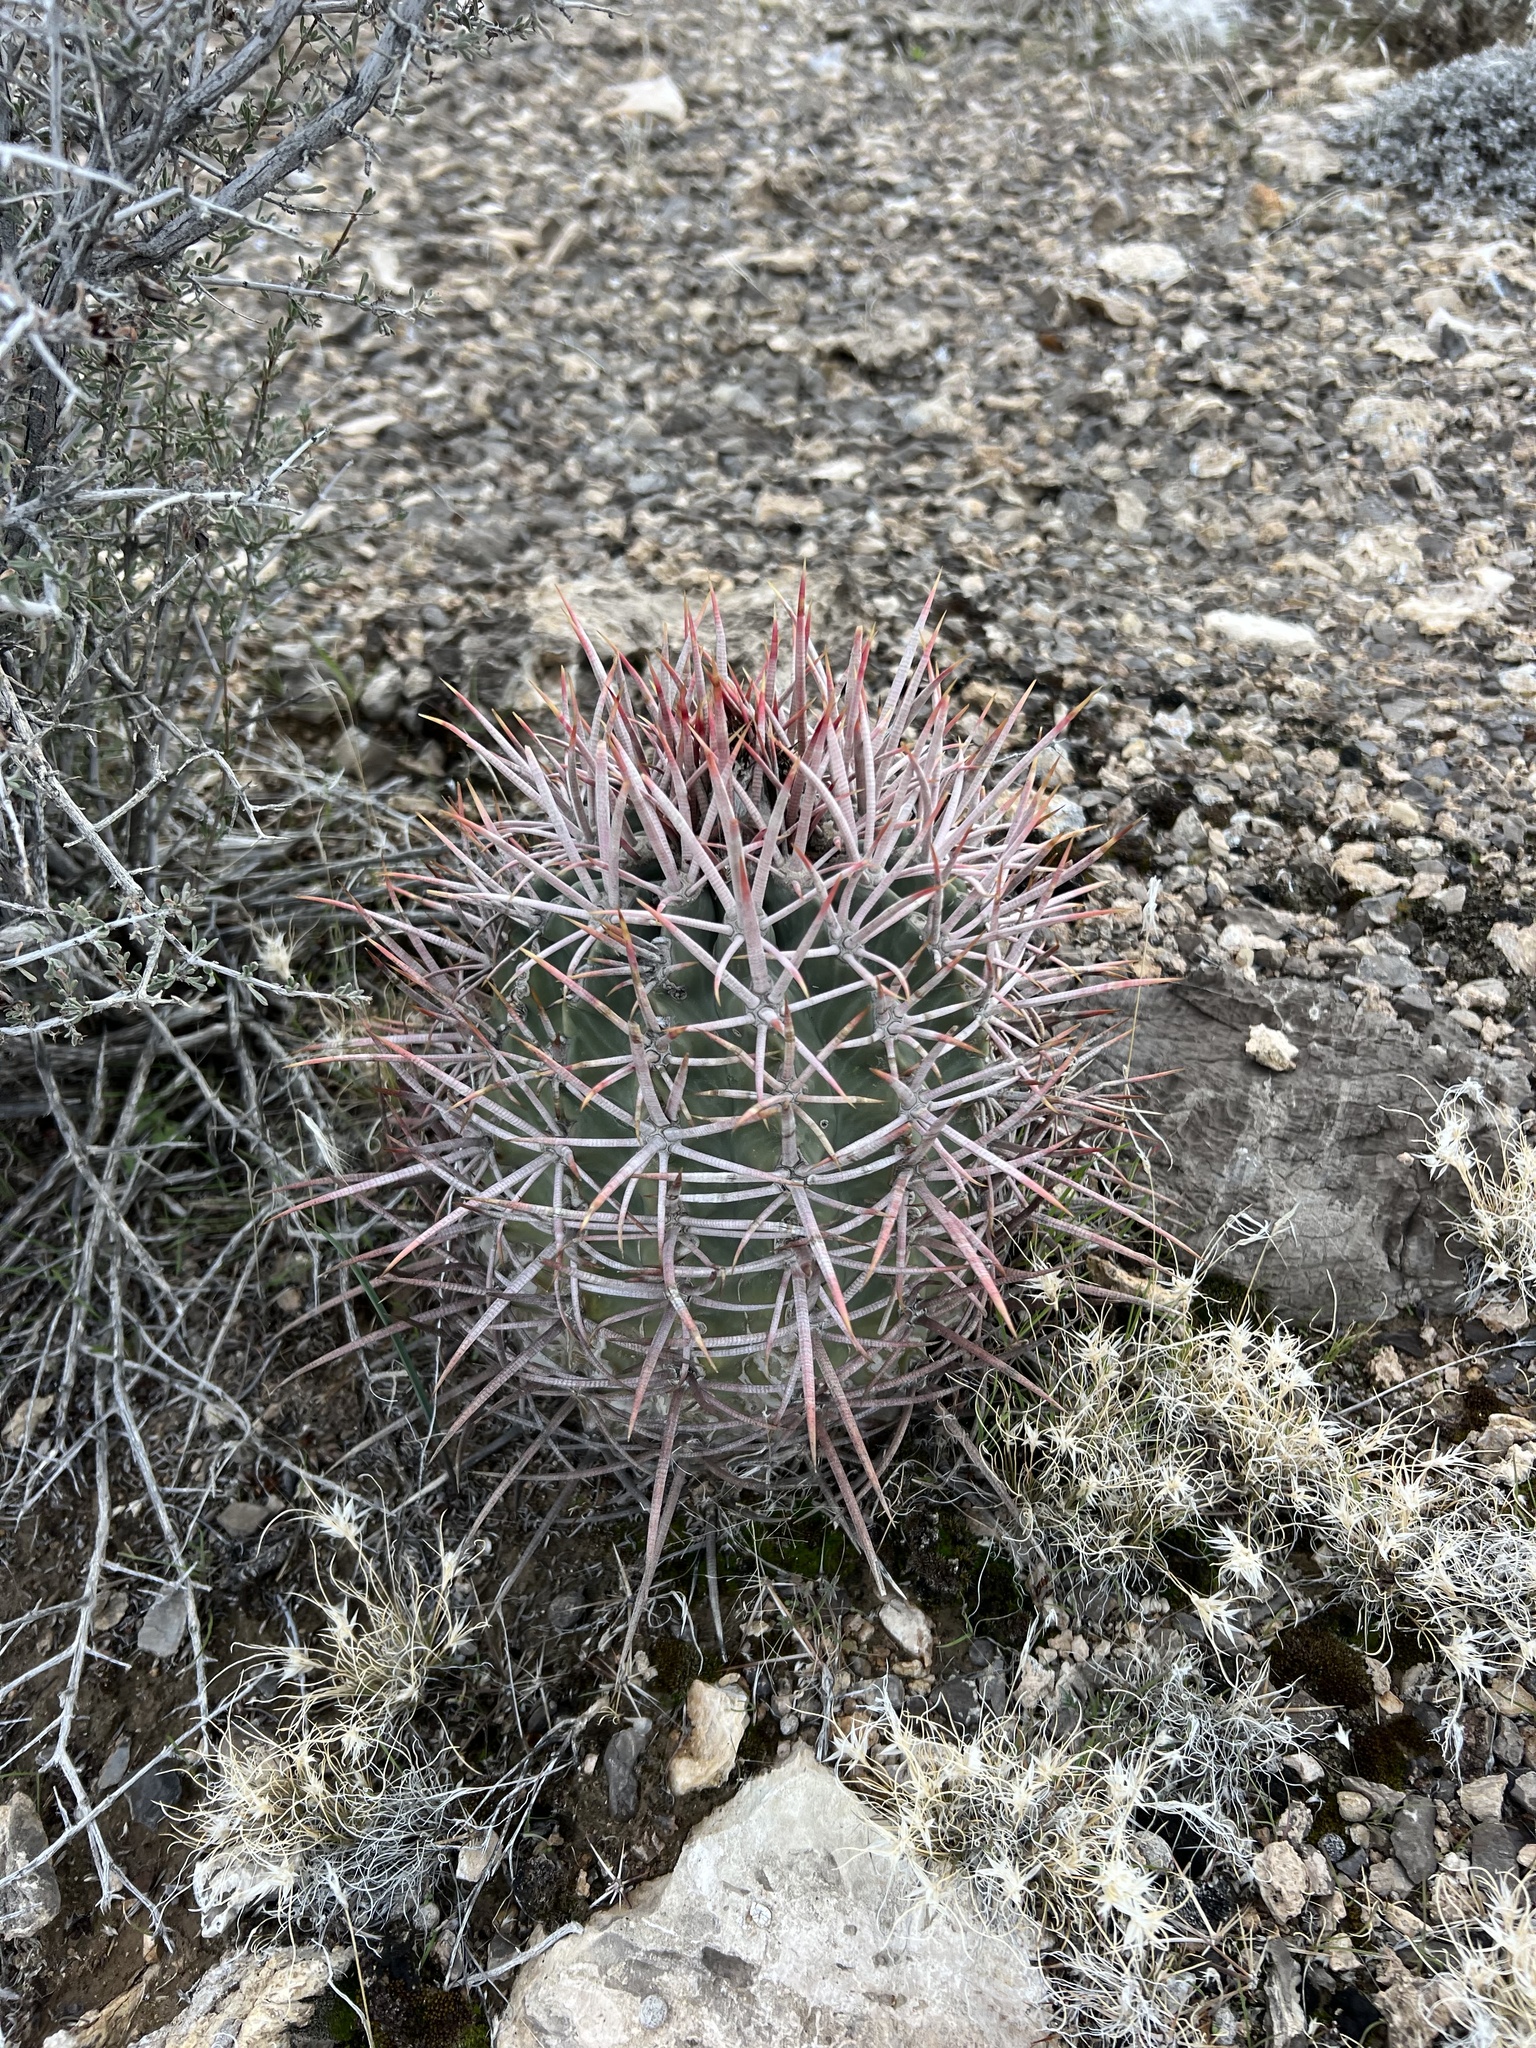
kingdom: Plantae
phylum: Tracheophyta
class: Magnoliopsida
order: Caryophyllales
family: Cactaceae
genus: Echinocactus
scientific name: Echinocactus polycephalus
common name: Cottontop cactus
